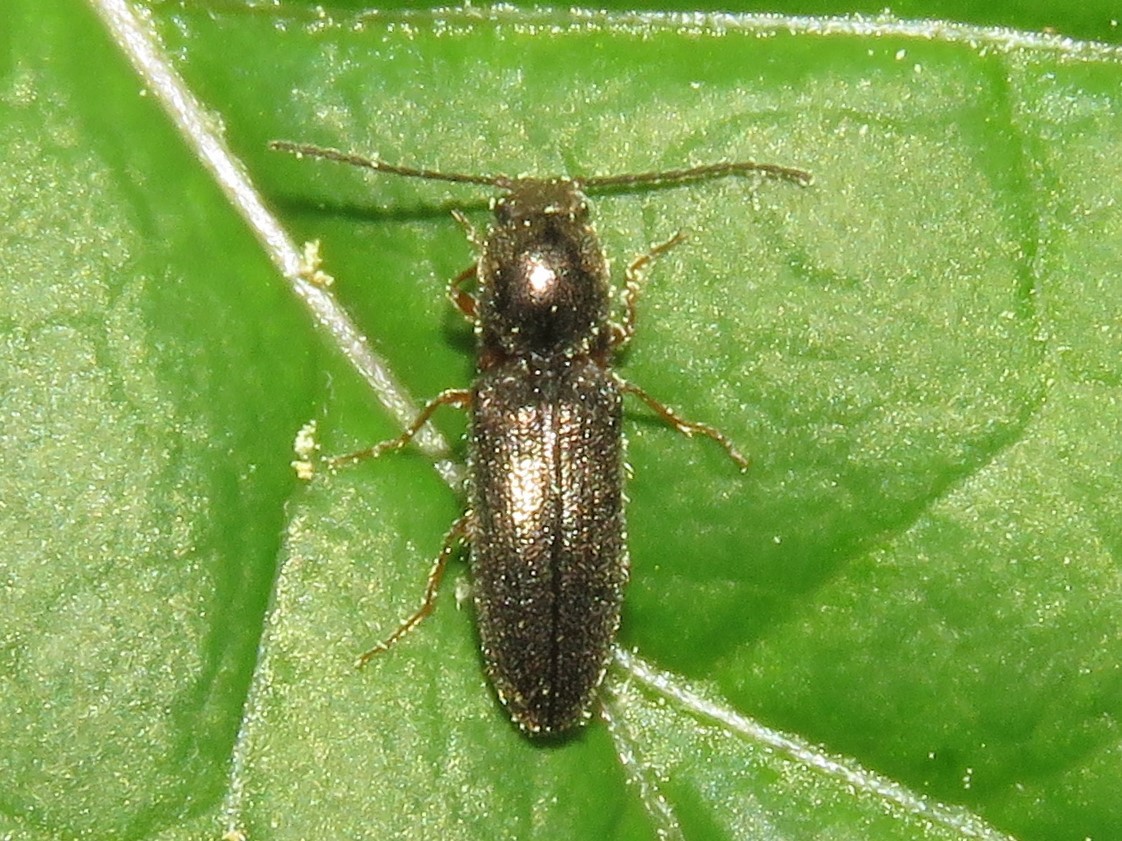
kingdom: Animalia
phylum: Arthropoda
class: Insecta
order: Coleoptera
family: Elateridae
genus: Limonius
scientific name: Limonius basilaris
